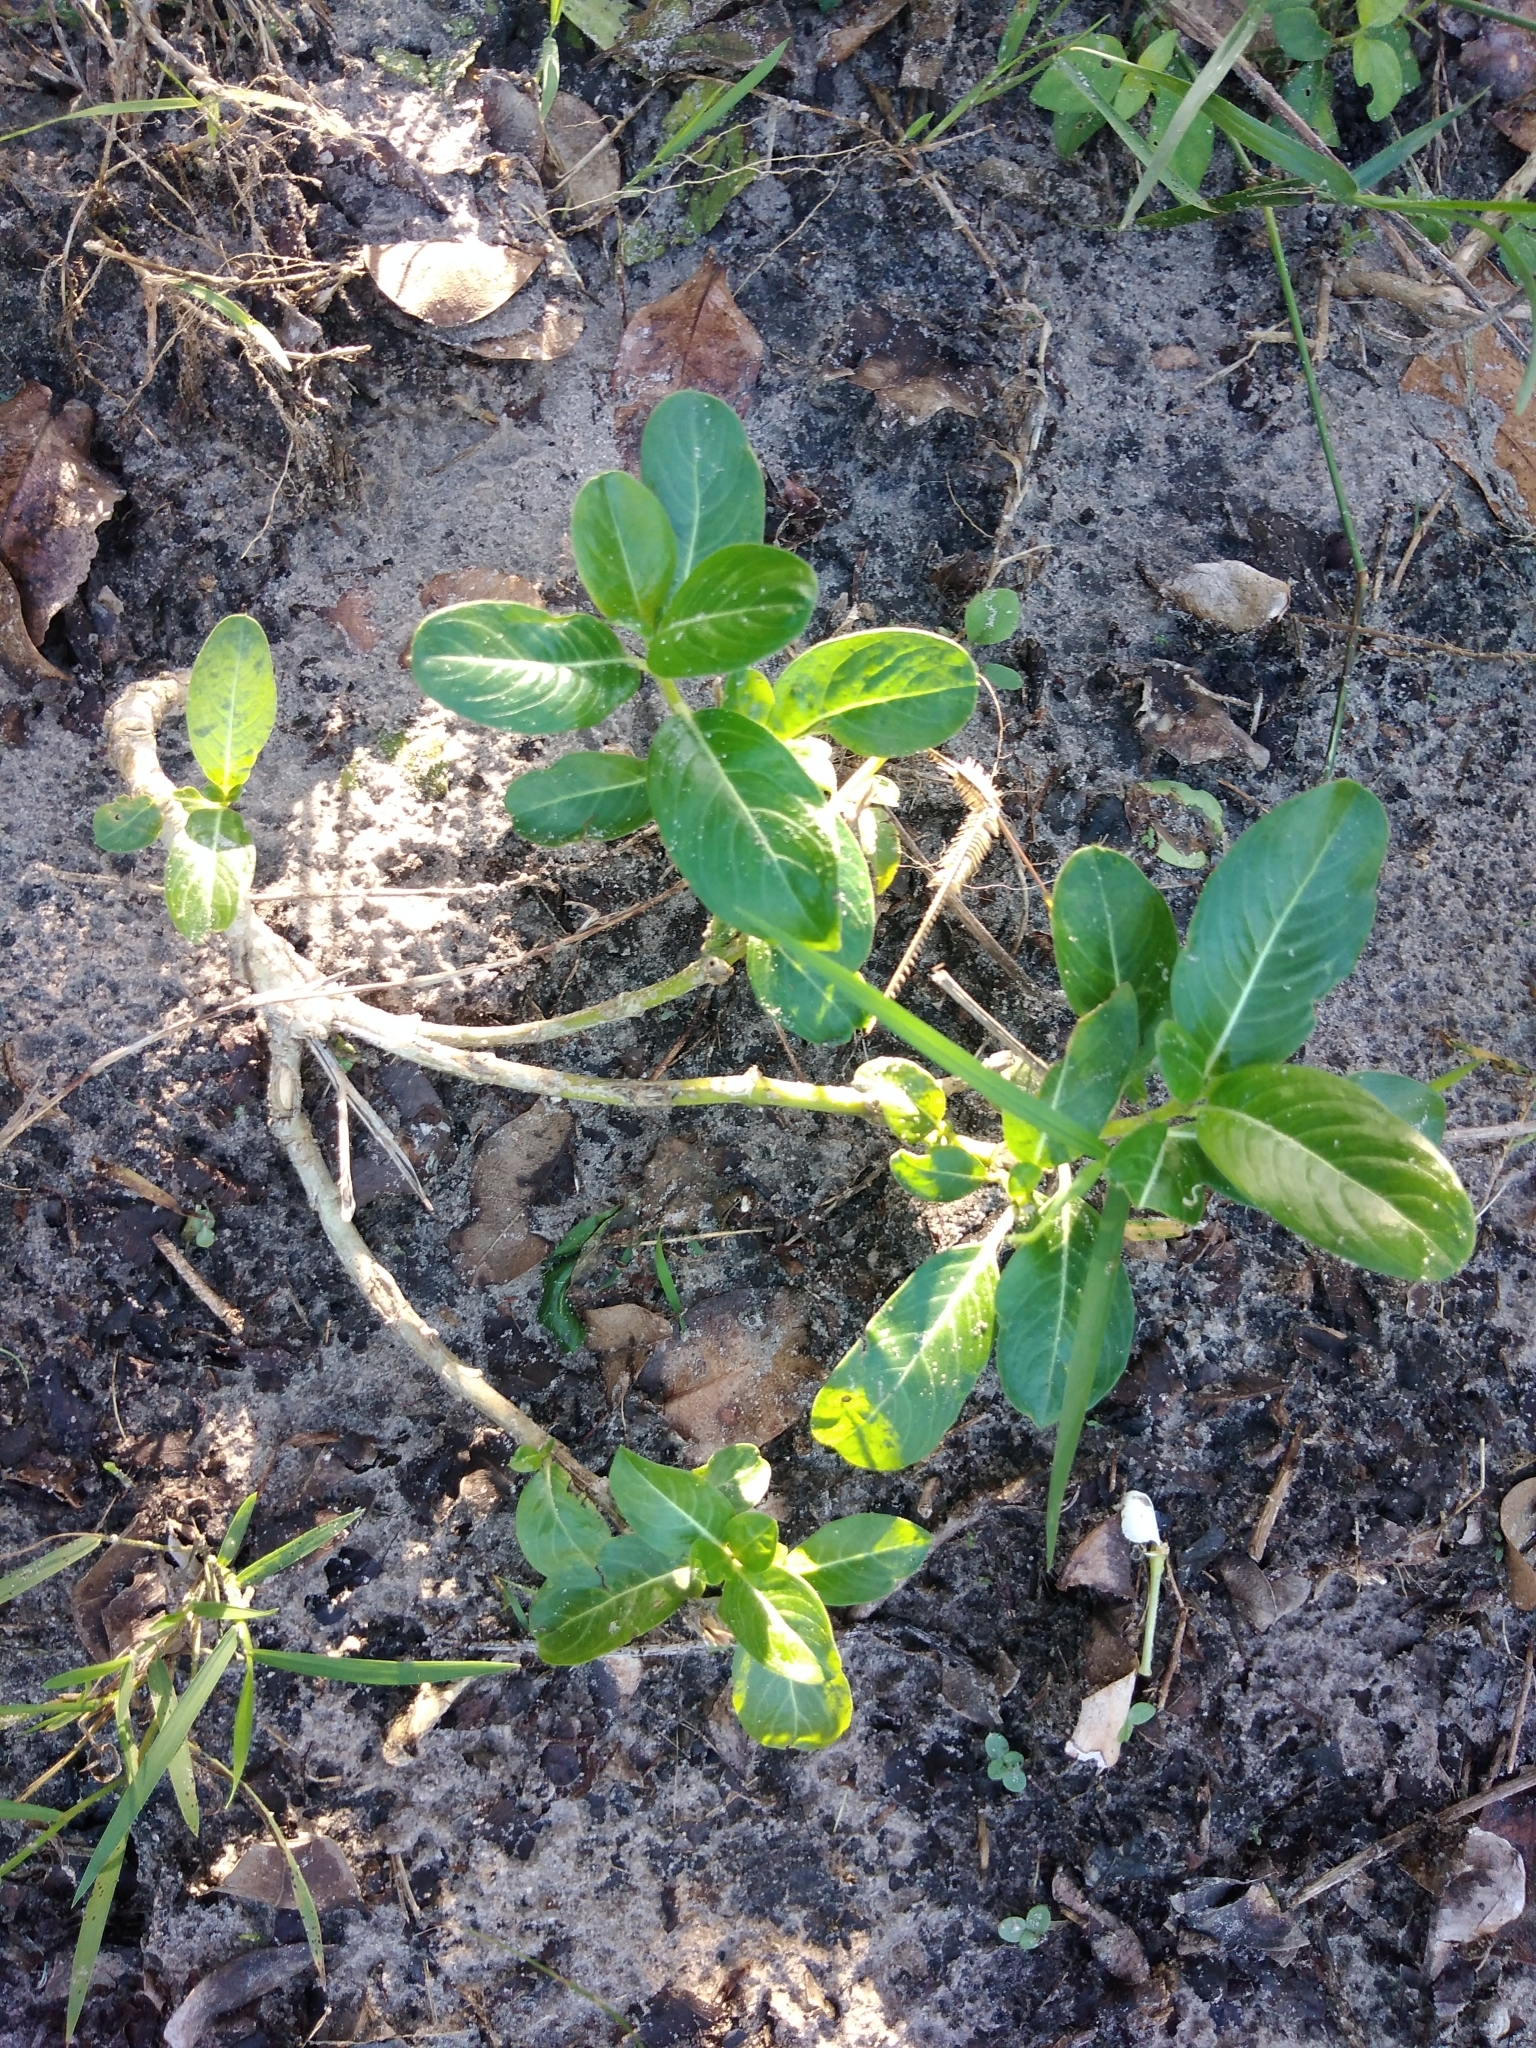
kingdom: Plantae
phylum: Tracheophyta
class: Magnoliopsida
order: Gentianales
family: Apocynaceae
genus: Catharanthus
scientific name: Catharanthus roseus
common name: Madagascar periwinkle
